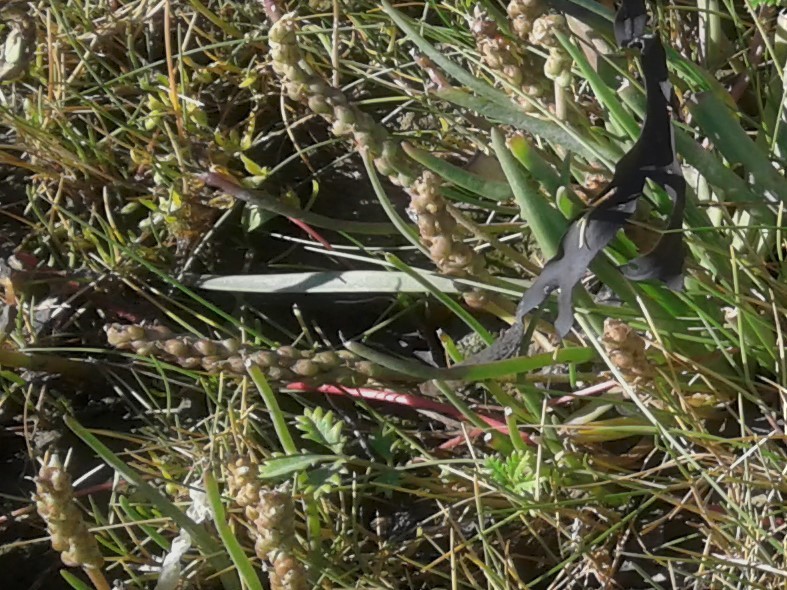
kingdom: Plantae
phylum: Tracheophyta
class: Magnoliopsida
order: Lamiales
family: Plantaginaceae
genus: Plantago
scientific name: Plantago maritima
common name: Sea plantain
